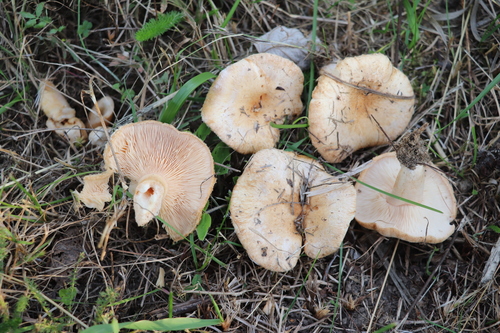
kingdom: Fungi
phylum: Basidiomycota
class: Agaricomycetes
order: Russulales
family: Russulaceae
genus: Lactarius
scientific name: Lactarius pubescens
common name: Bearded milkcap
